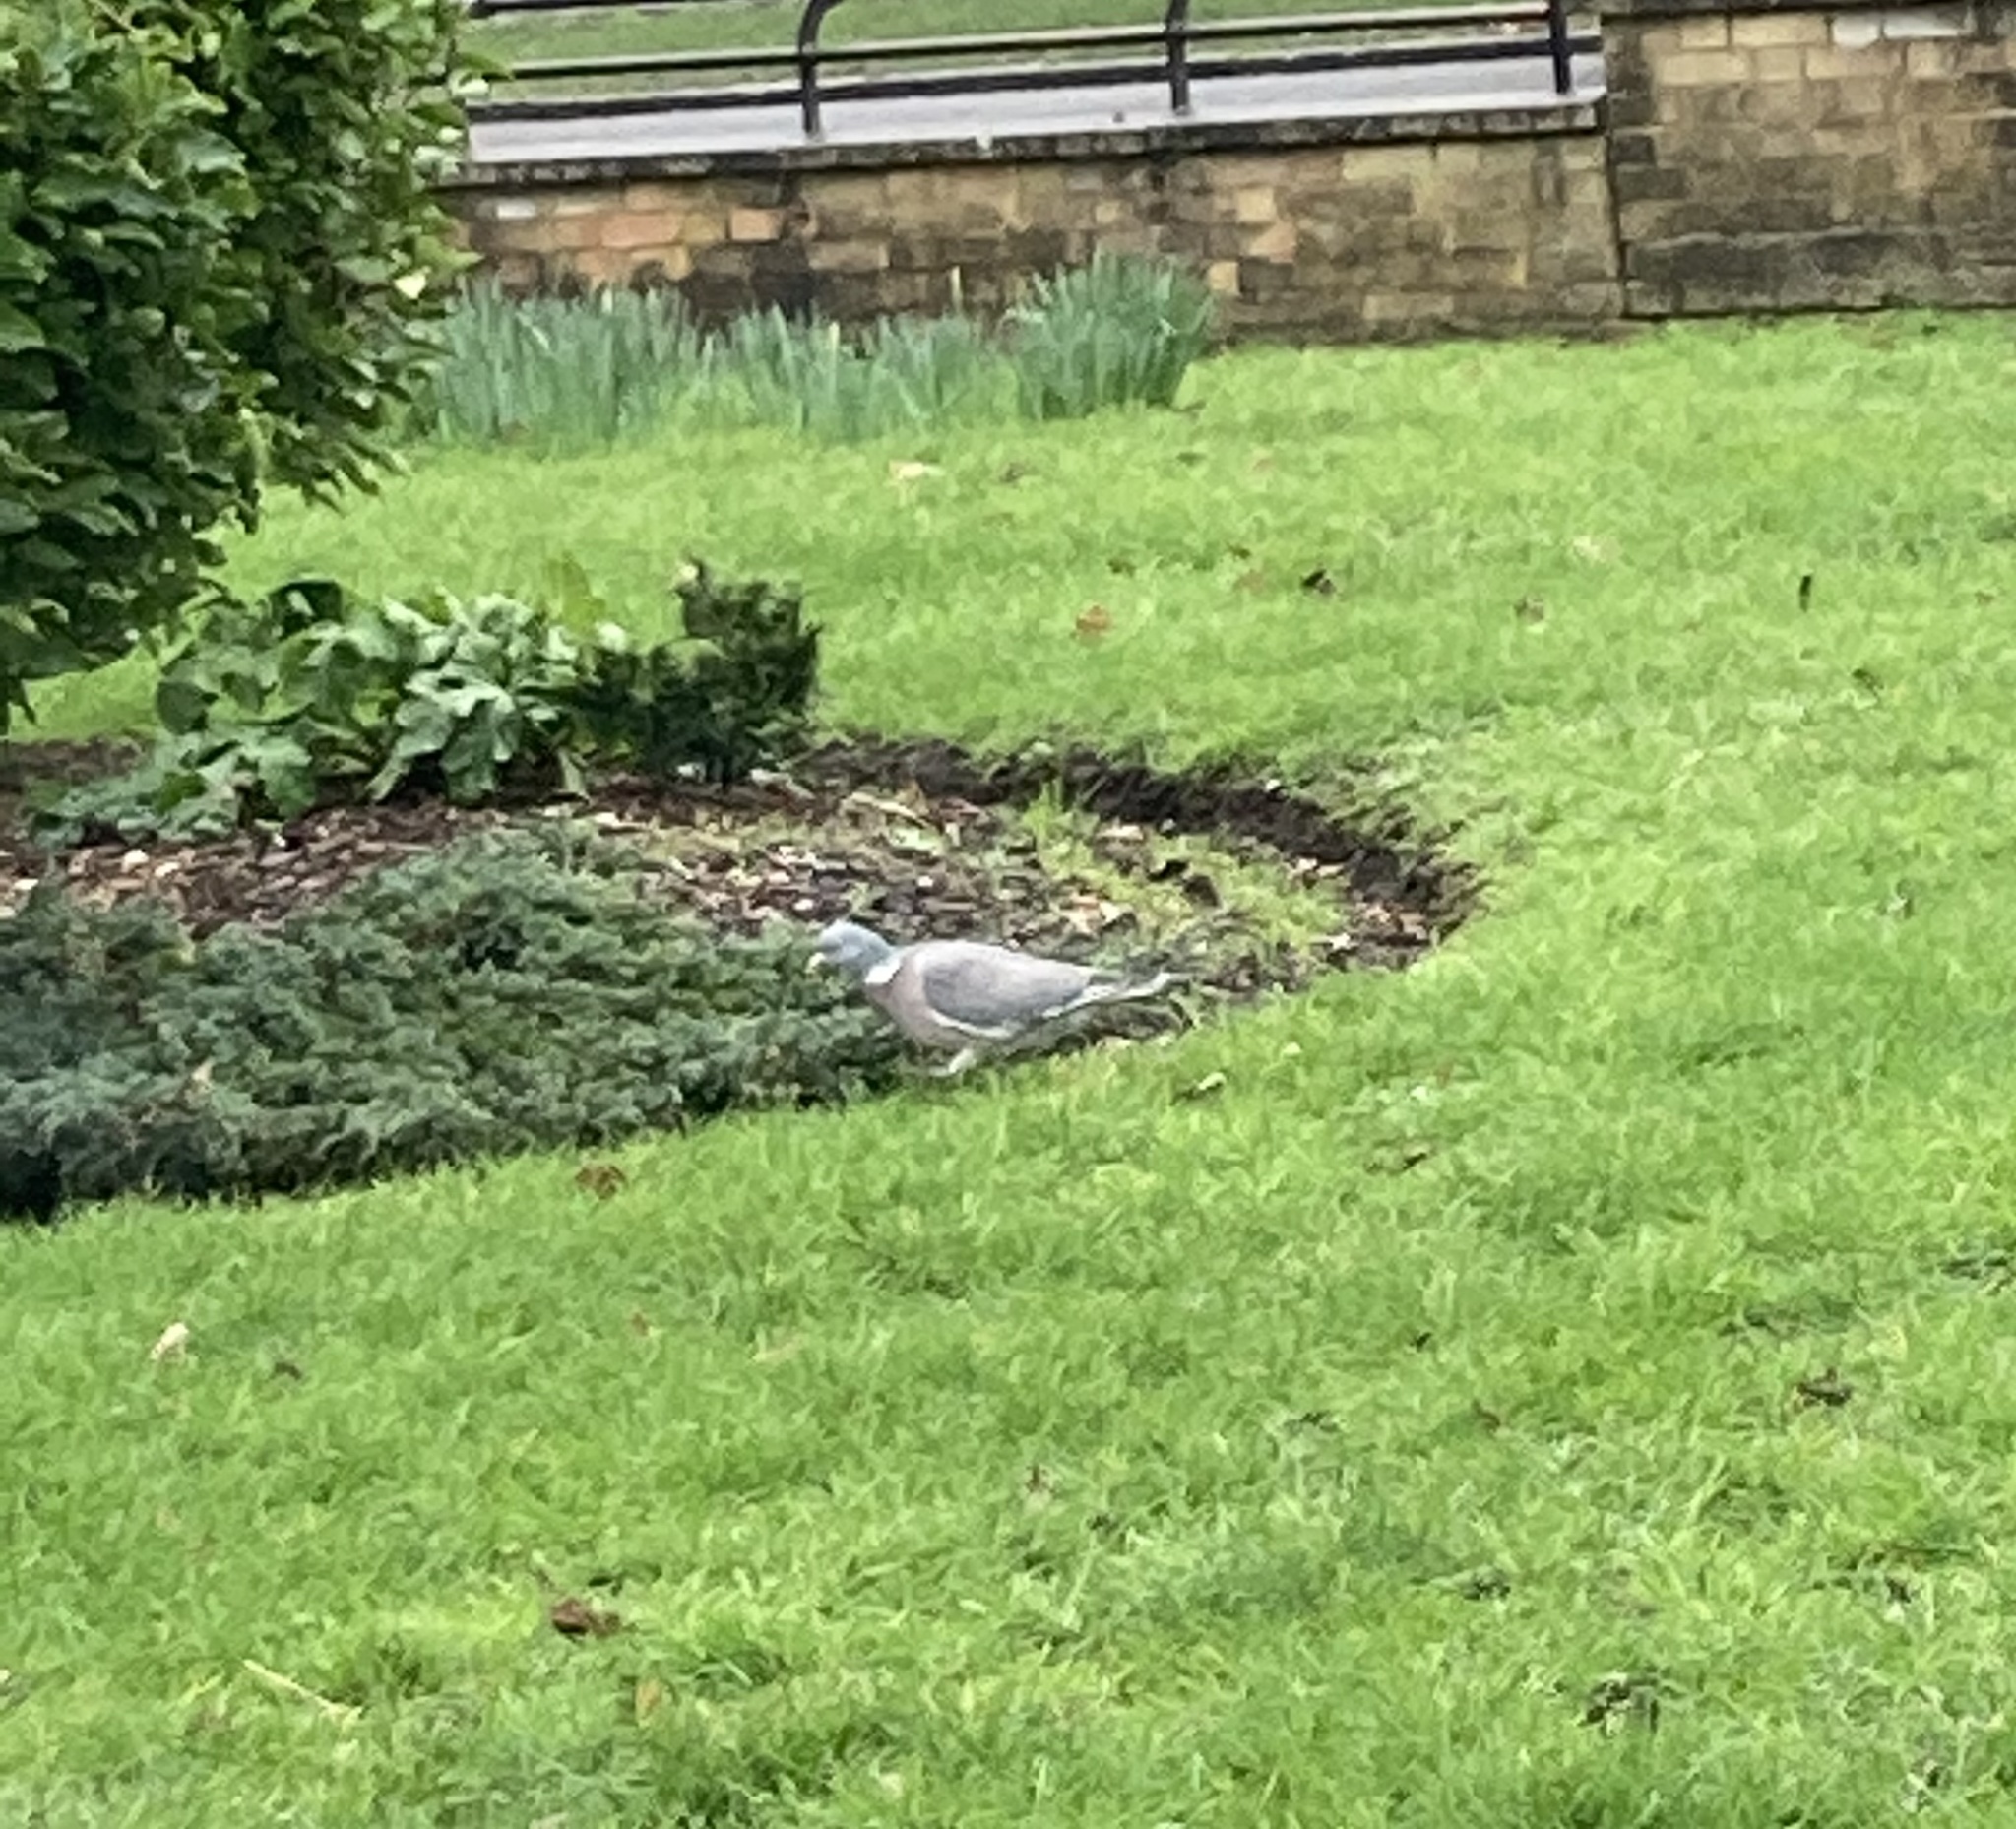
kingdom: Animalia
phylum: Chordata
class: Aves
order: Columbiformes
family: Columbidae
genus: Columba
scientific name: Columba palumbus
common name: Common wood pigeon
